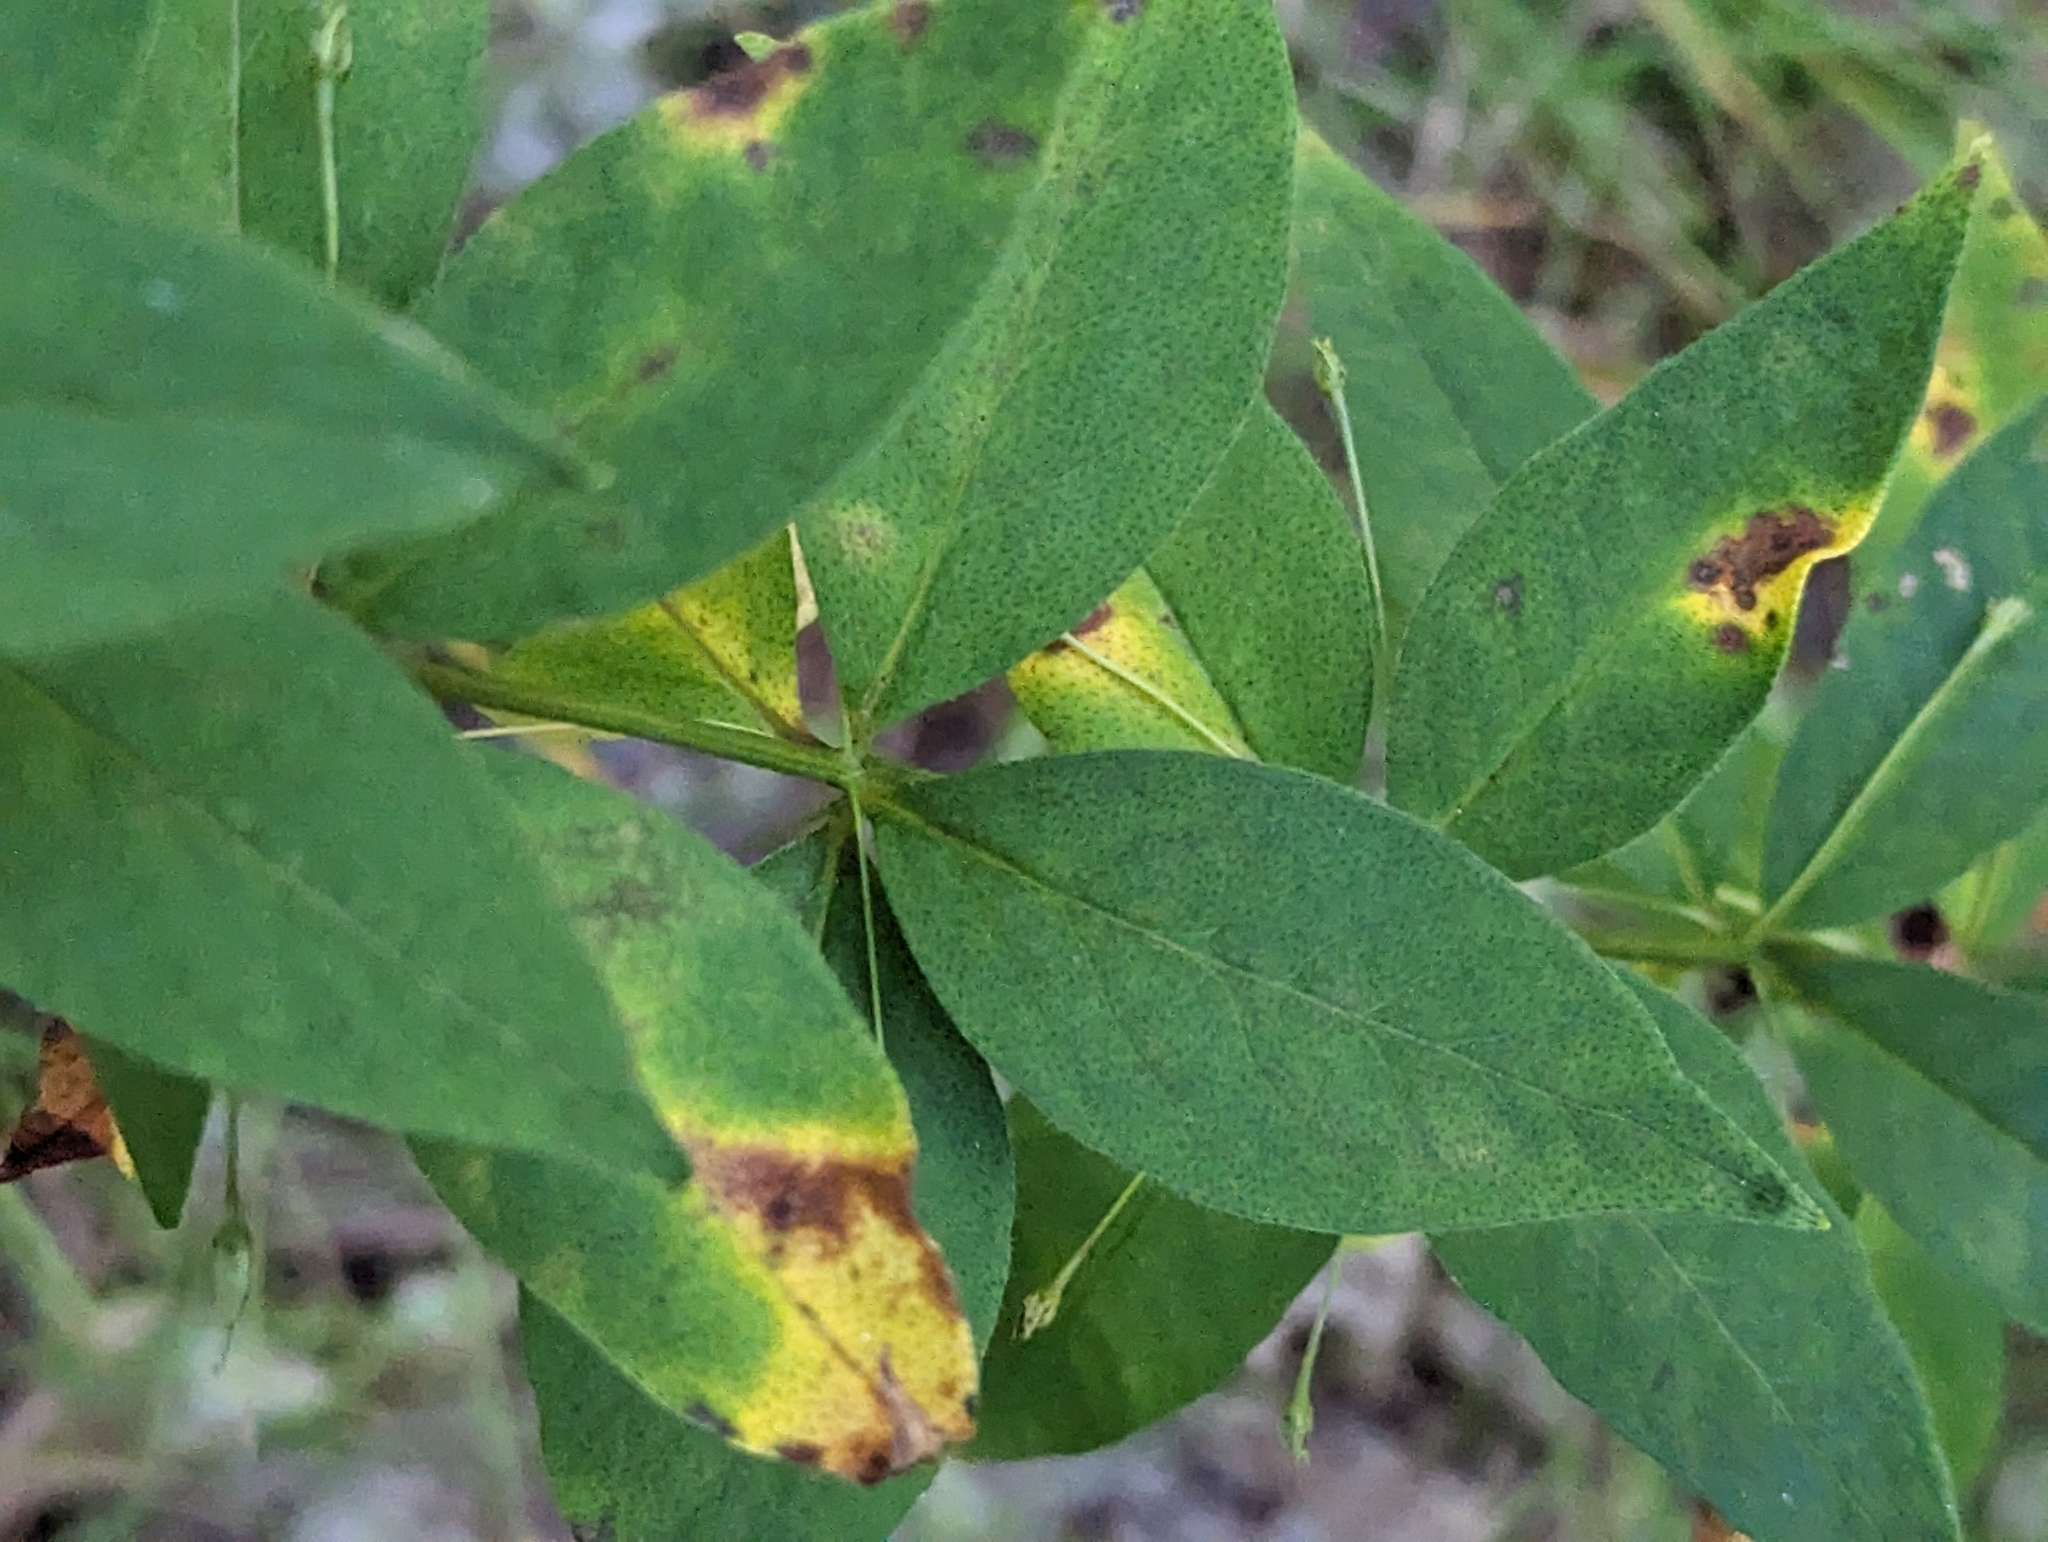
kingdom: Plantae
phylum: Tracheophyta
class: Magnoliopsida
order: Ericales
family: Primulaceae
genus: Lysimachia
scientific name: Lysimachia quadrifolia
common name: Whorled loosestrife
